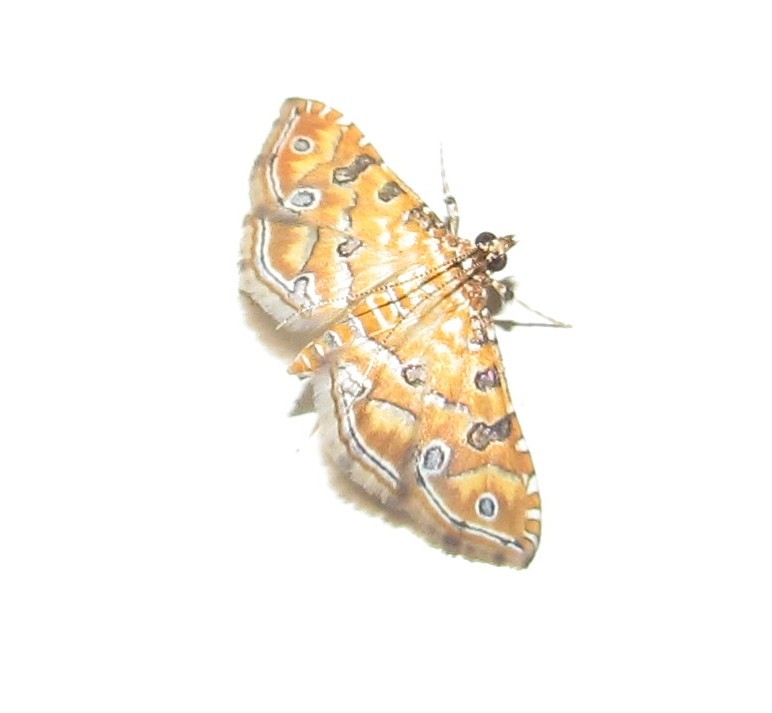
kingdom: Animalia
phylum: Arthropoda
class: Insecta
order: Lepidoptera
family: Crambidae
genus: Ommatospila
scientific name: Ommatospila narcaeusalis
